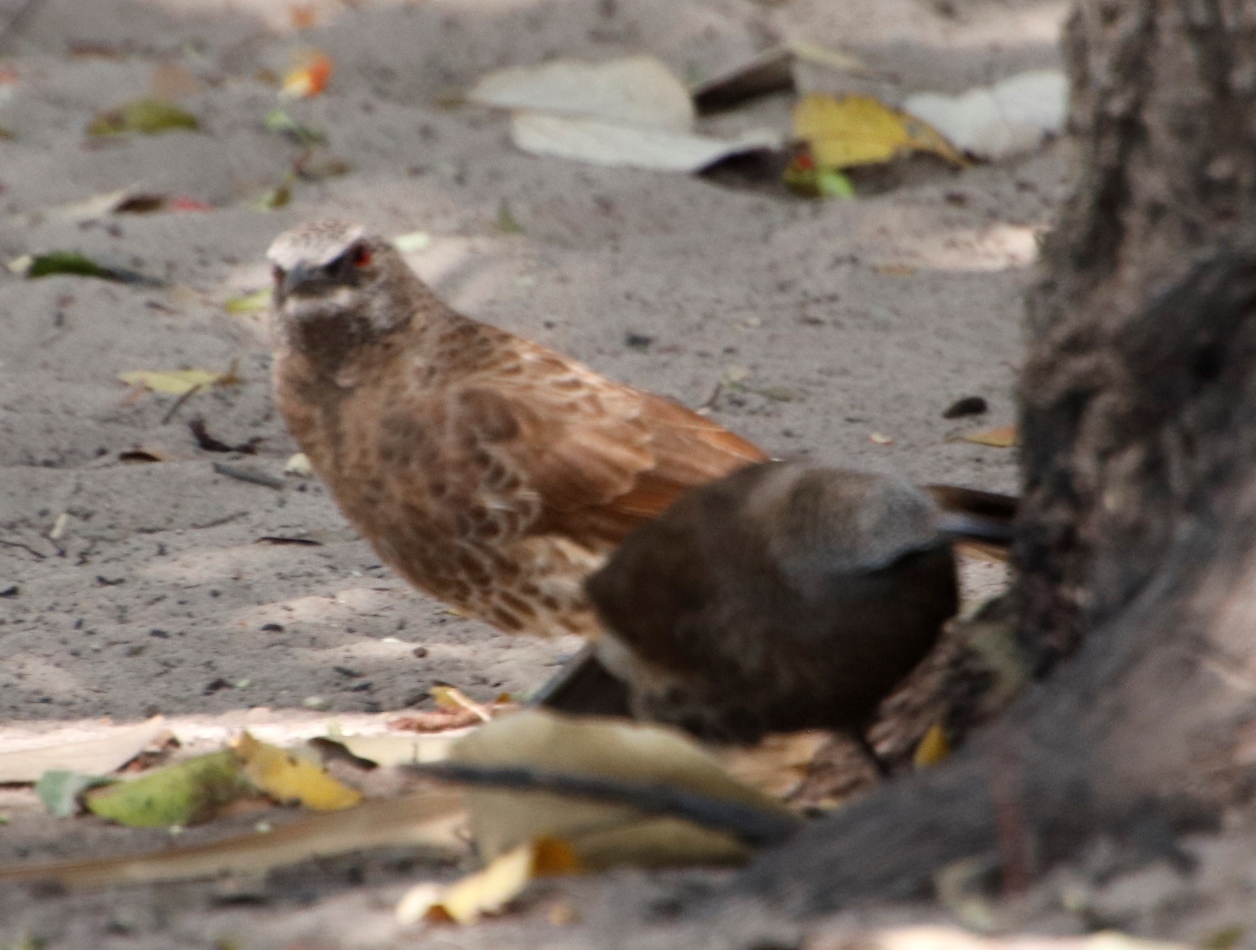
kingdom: Animalia
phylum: Chordata
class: Aves
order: Passeriformes
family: Leiothrichidae
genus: Turdoides
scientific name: Turdoides hartlaubii
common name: Hartlaub's babbler
